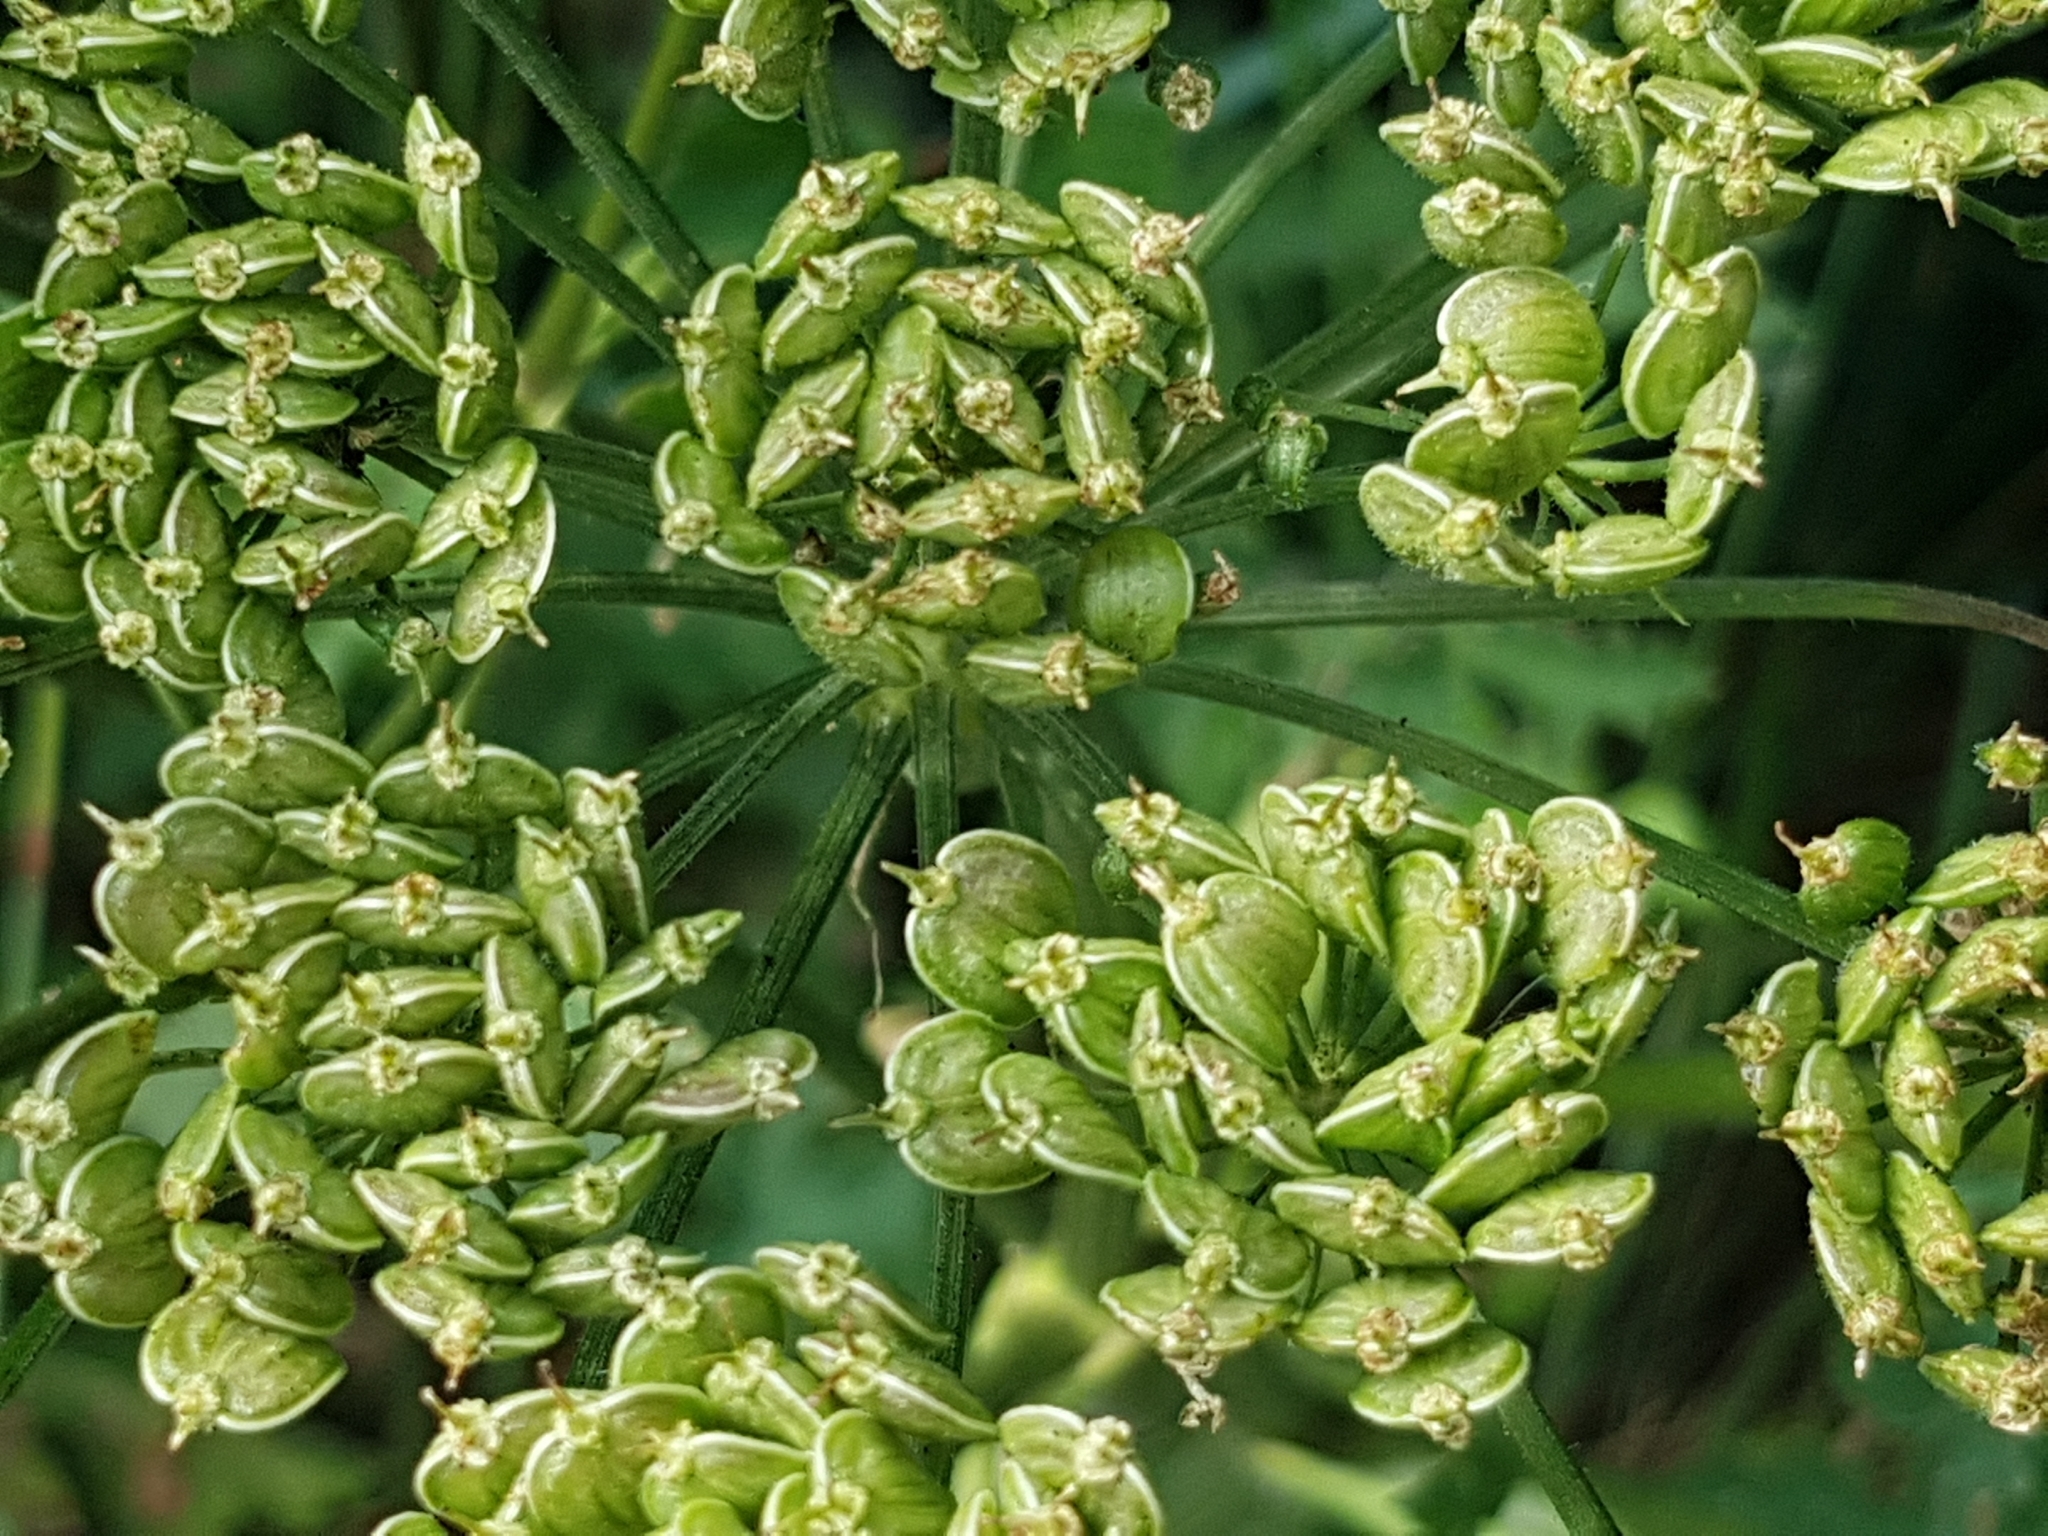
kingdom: Plantae
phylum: Tracheophyta
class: Magnoliopsida
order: Apiales
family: Apiaceae
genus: Heracleum
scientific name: Heracleum sphondylium
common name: Hogweed
